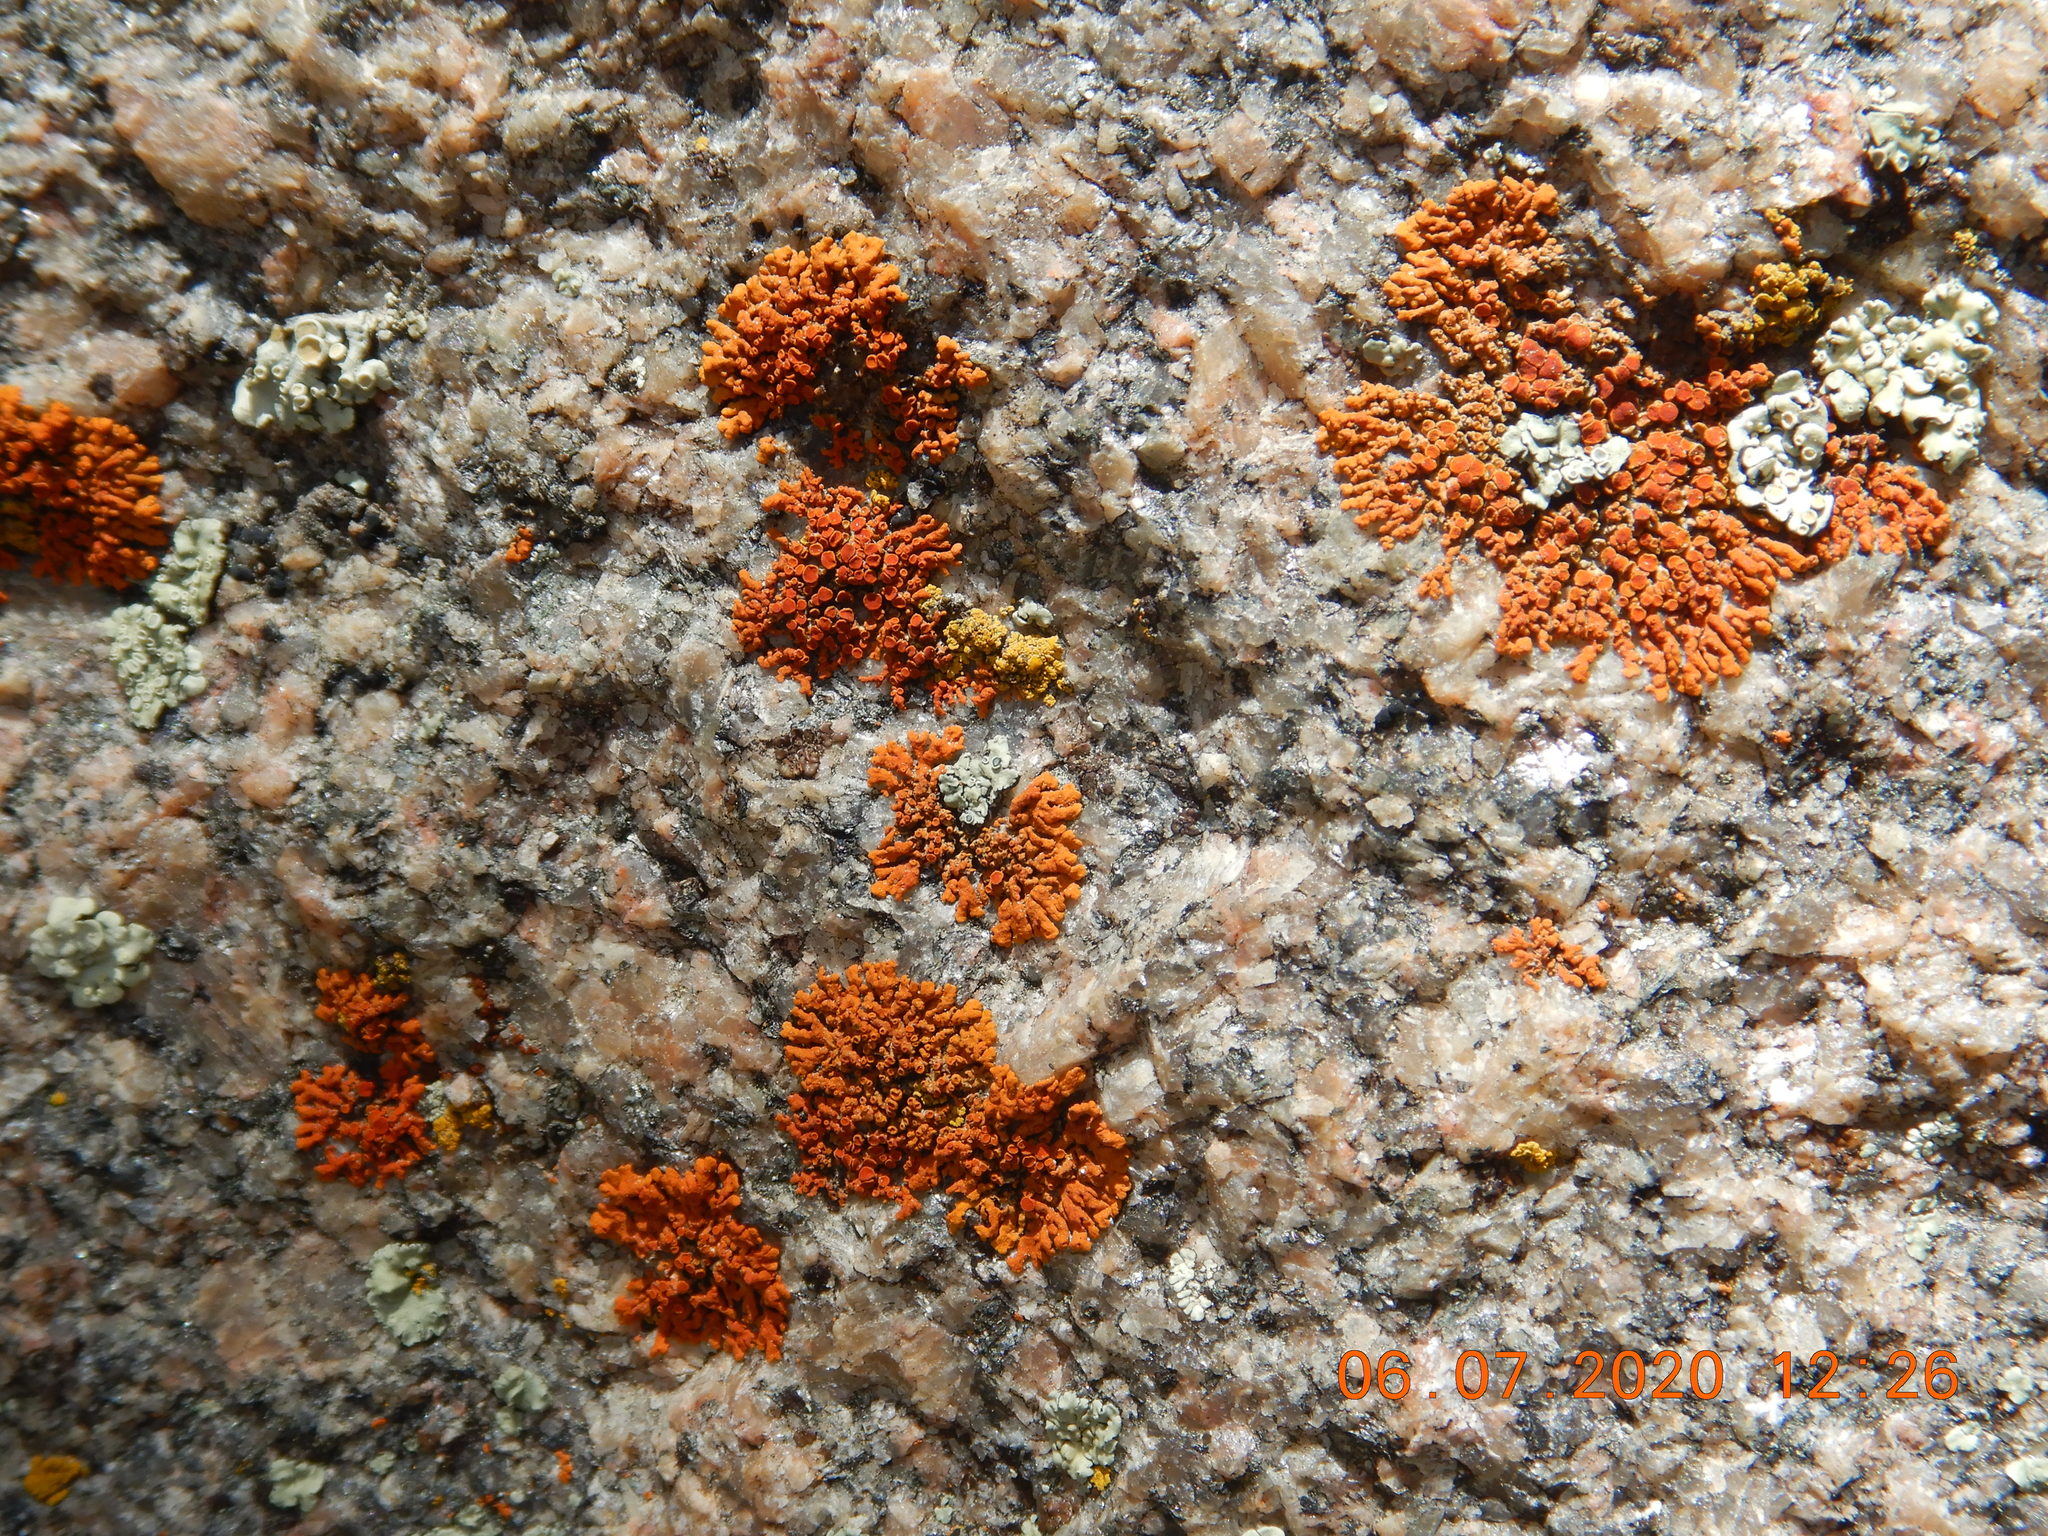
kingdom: Fungi
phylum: Ascomycota
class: Lecanoromycetes
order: Teloschistales
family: Teloschistaceae
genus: Xanthoria
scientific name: Xanthoria elegans
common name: Elegant sunburst lichen
